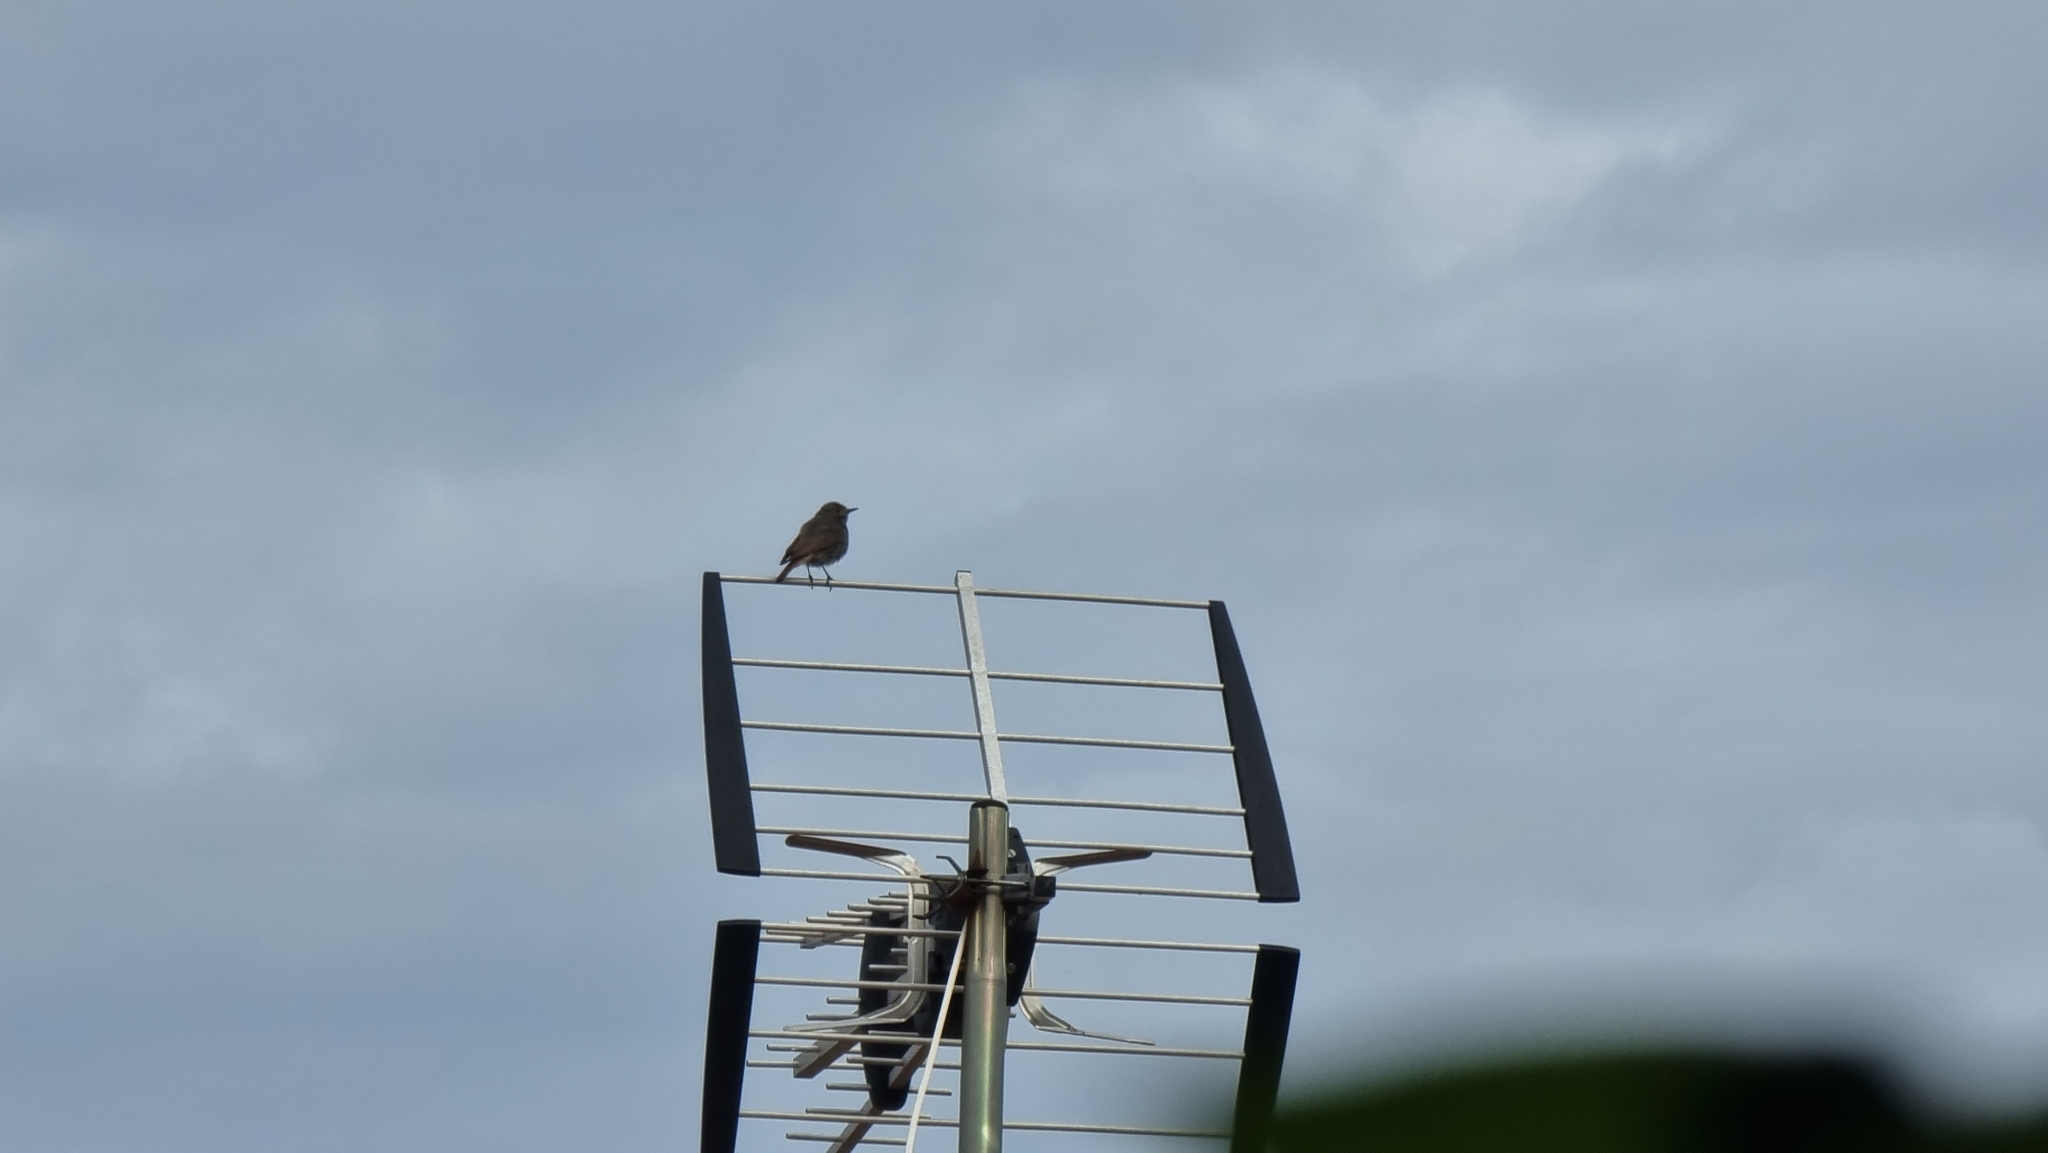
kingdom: Animalia
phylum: Chordata
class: Aves
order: Passeriformes
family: Muscicapidae
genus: Phoenicurus
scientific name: Phoenicurus ochruros
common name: Black redstart
